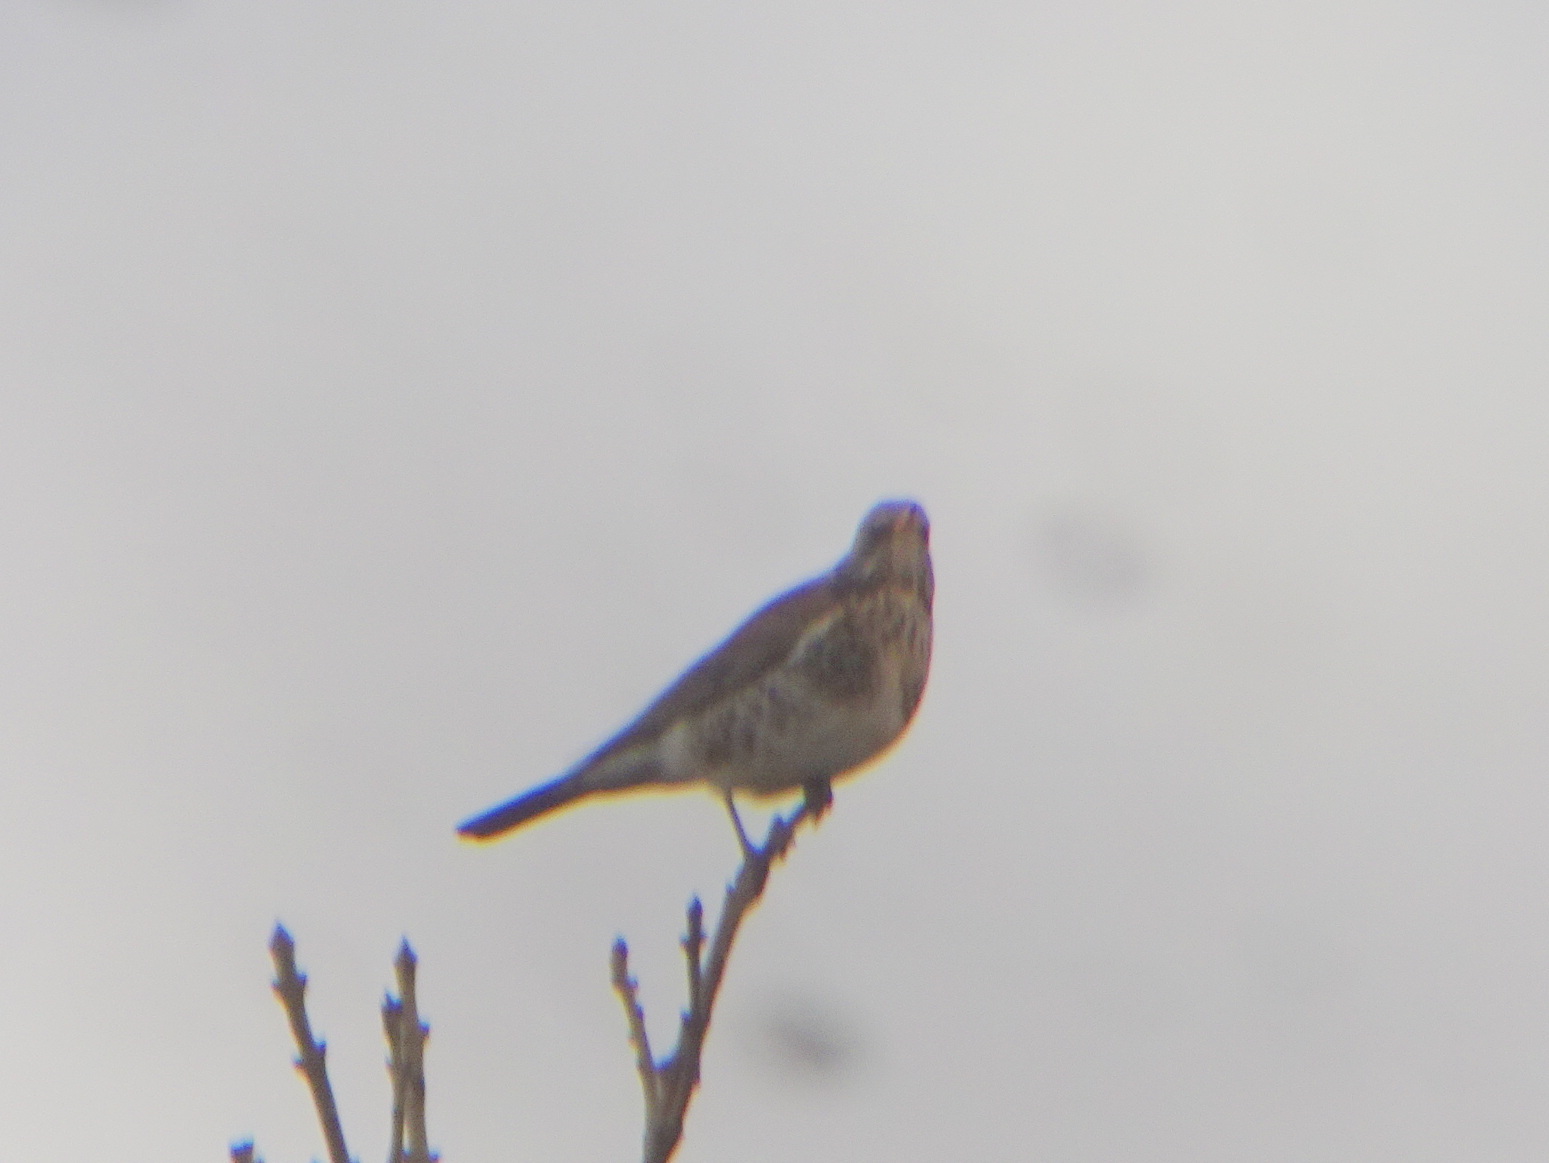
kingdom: Animalia
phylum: Chordata
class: Aves
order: Passeriformes
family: Turdidae
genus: Turdus
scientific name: Turdus pilaris
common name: Fieldfare
